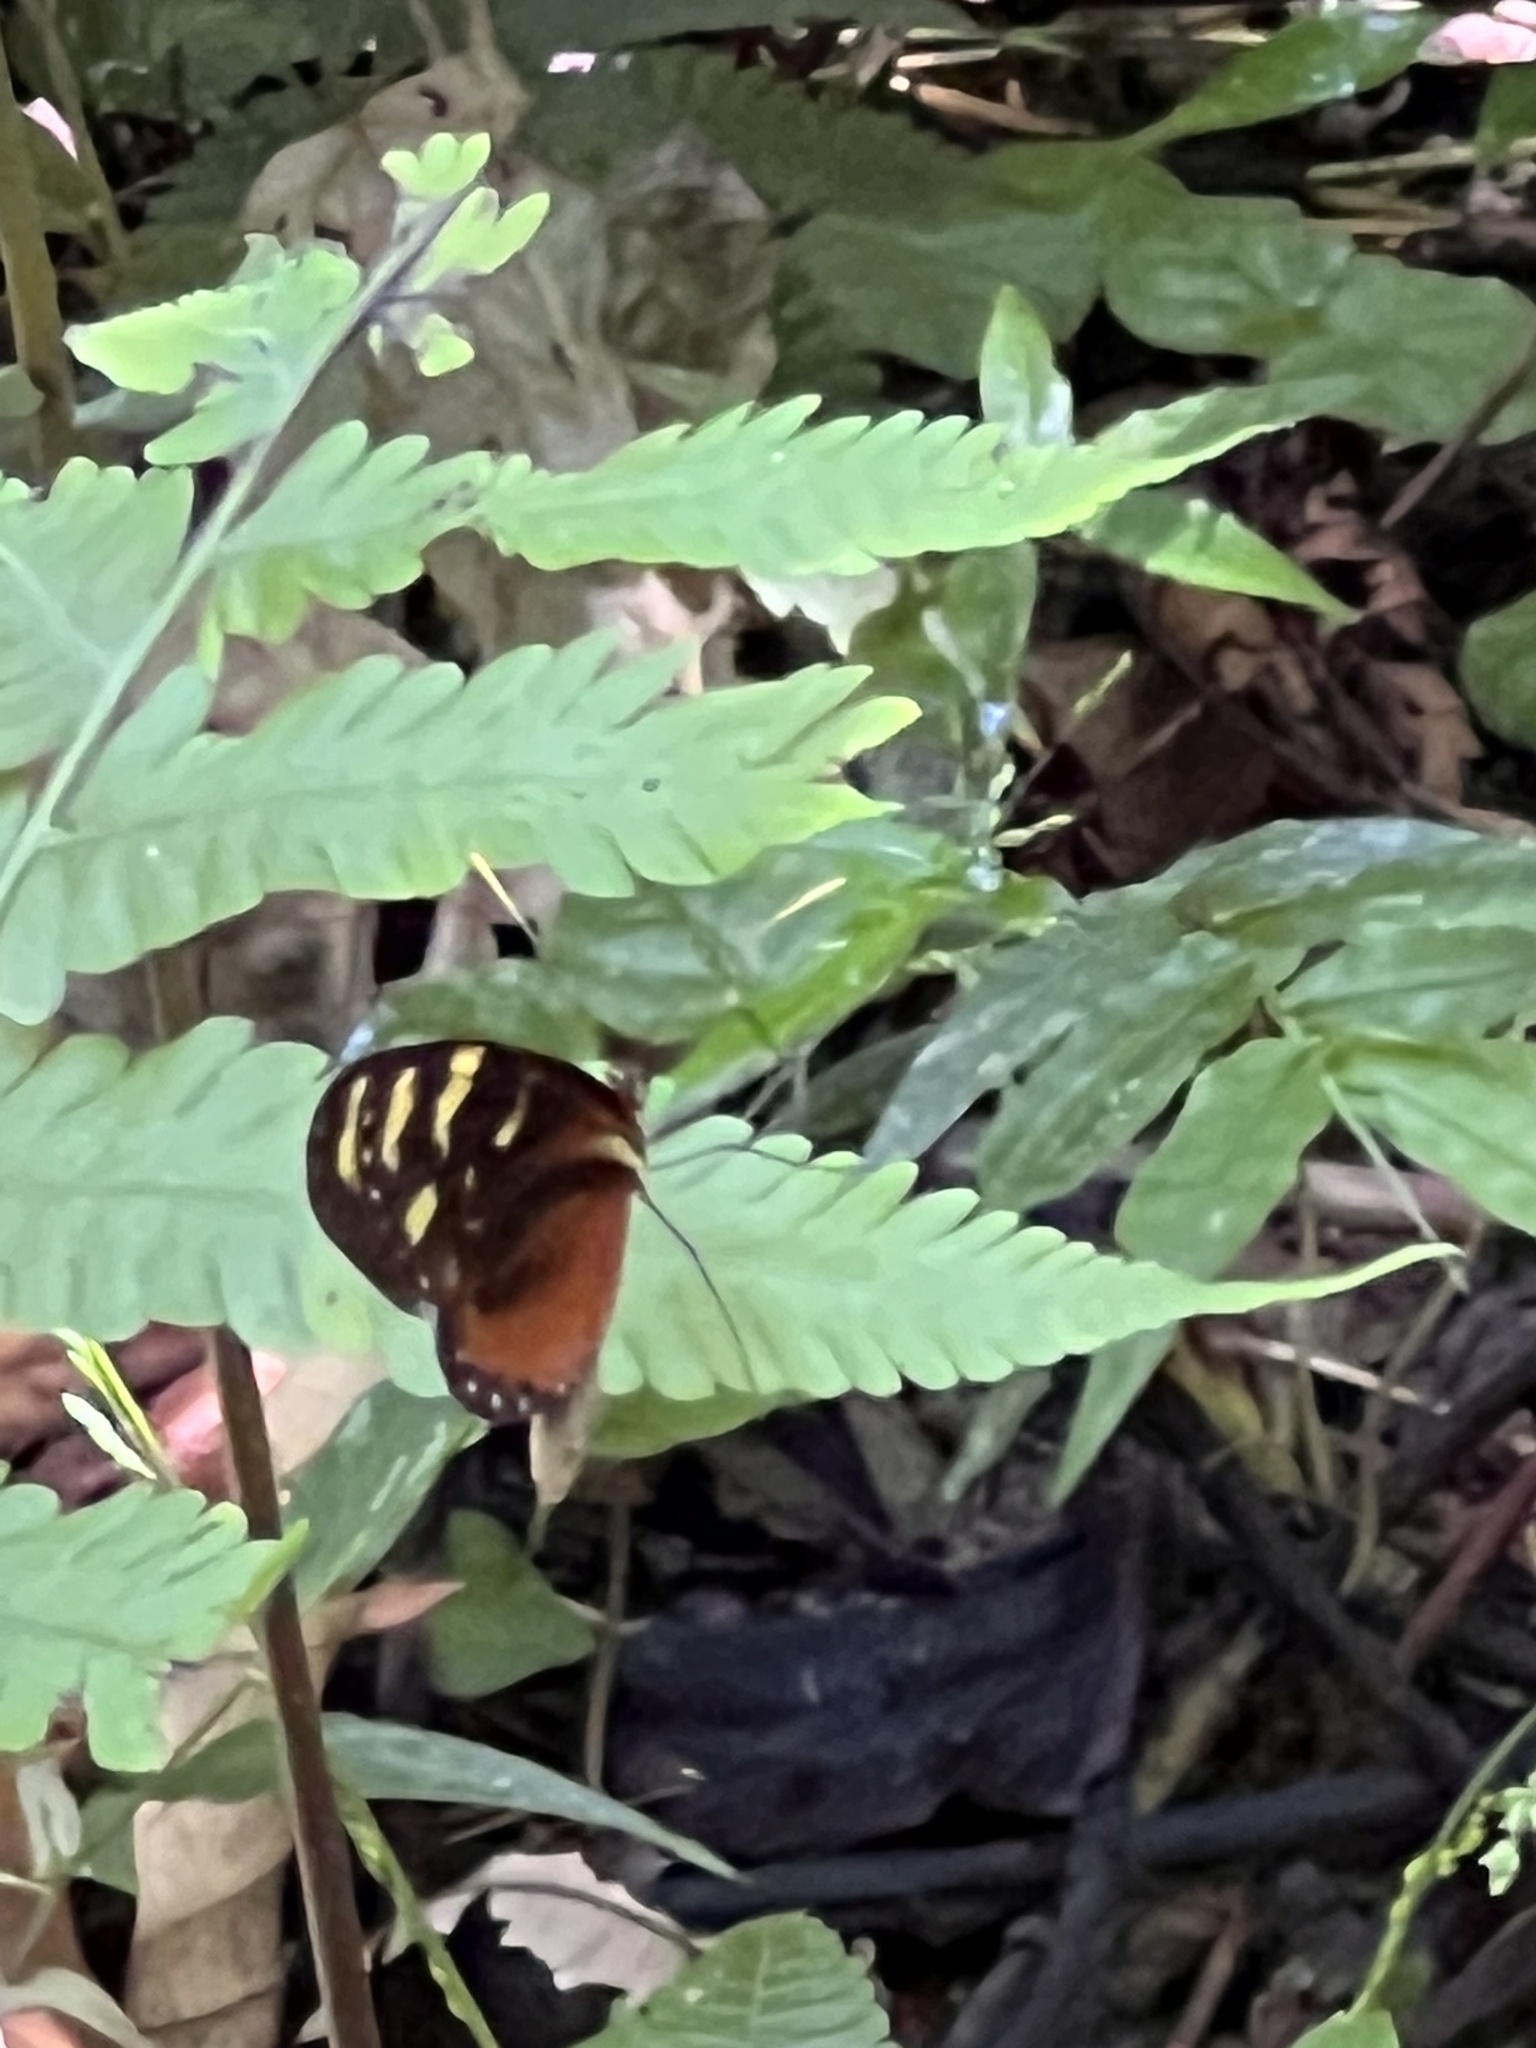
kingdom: Animalia
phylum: Arthropoda
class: Insecta
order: Lepidoptera
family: Nymphalidae
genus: Mechanitis
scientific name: Mechanitis polymnia
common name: Disturbed tigerwing
